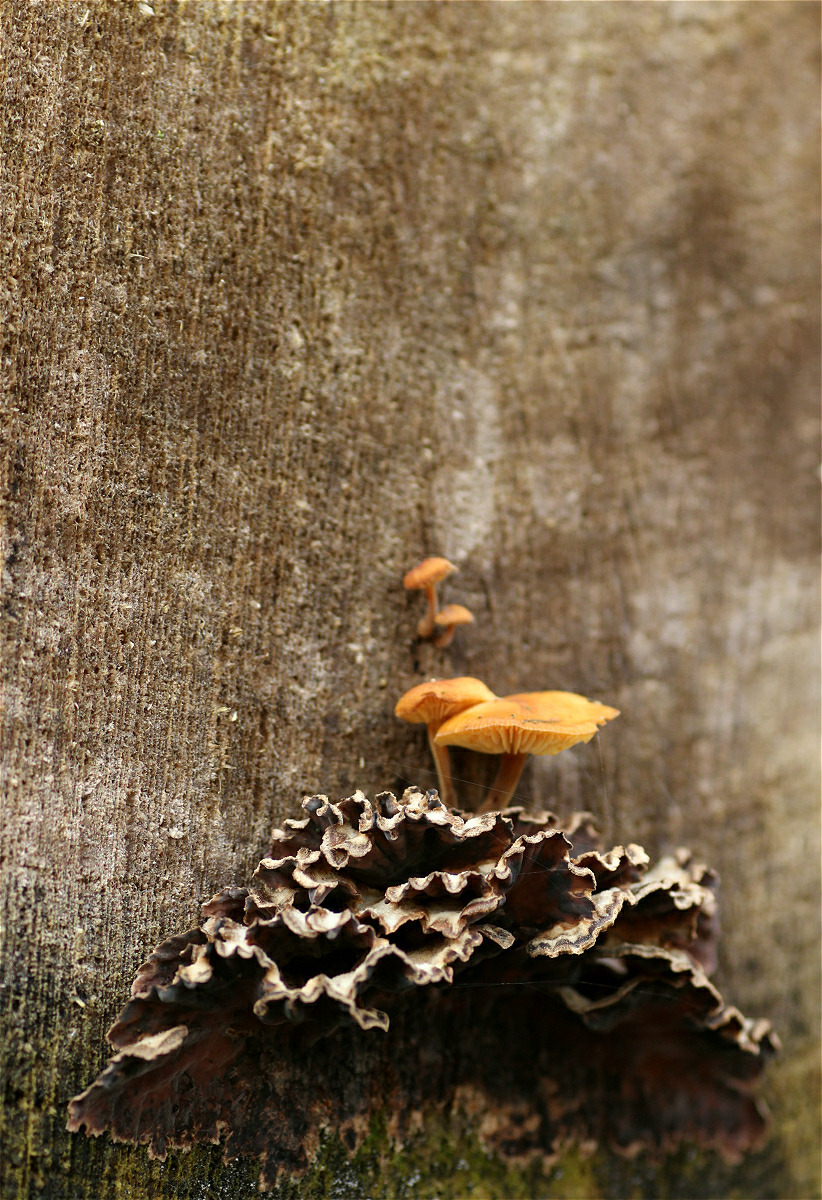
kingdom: Fungi
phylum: Basidiomycota
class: Agaricomycetes
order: Agaricales
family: Physalacriaceae
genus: Flammulina
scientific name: Flammulina
